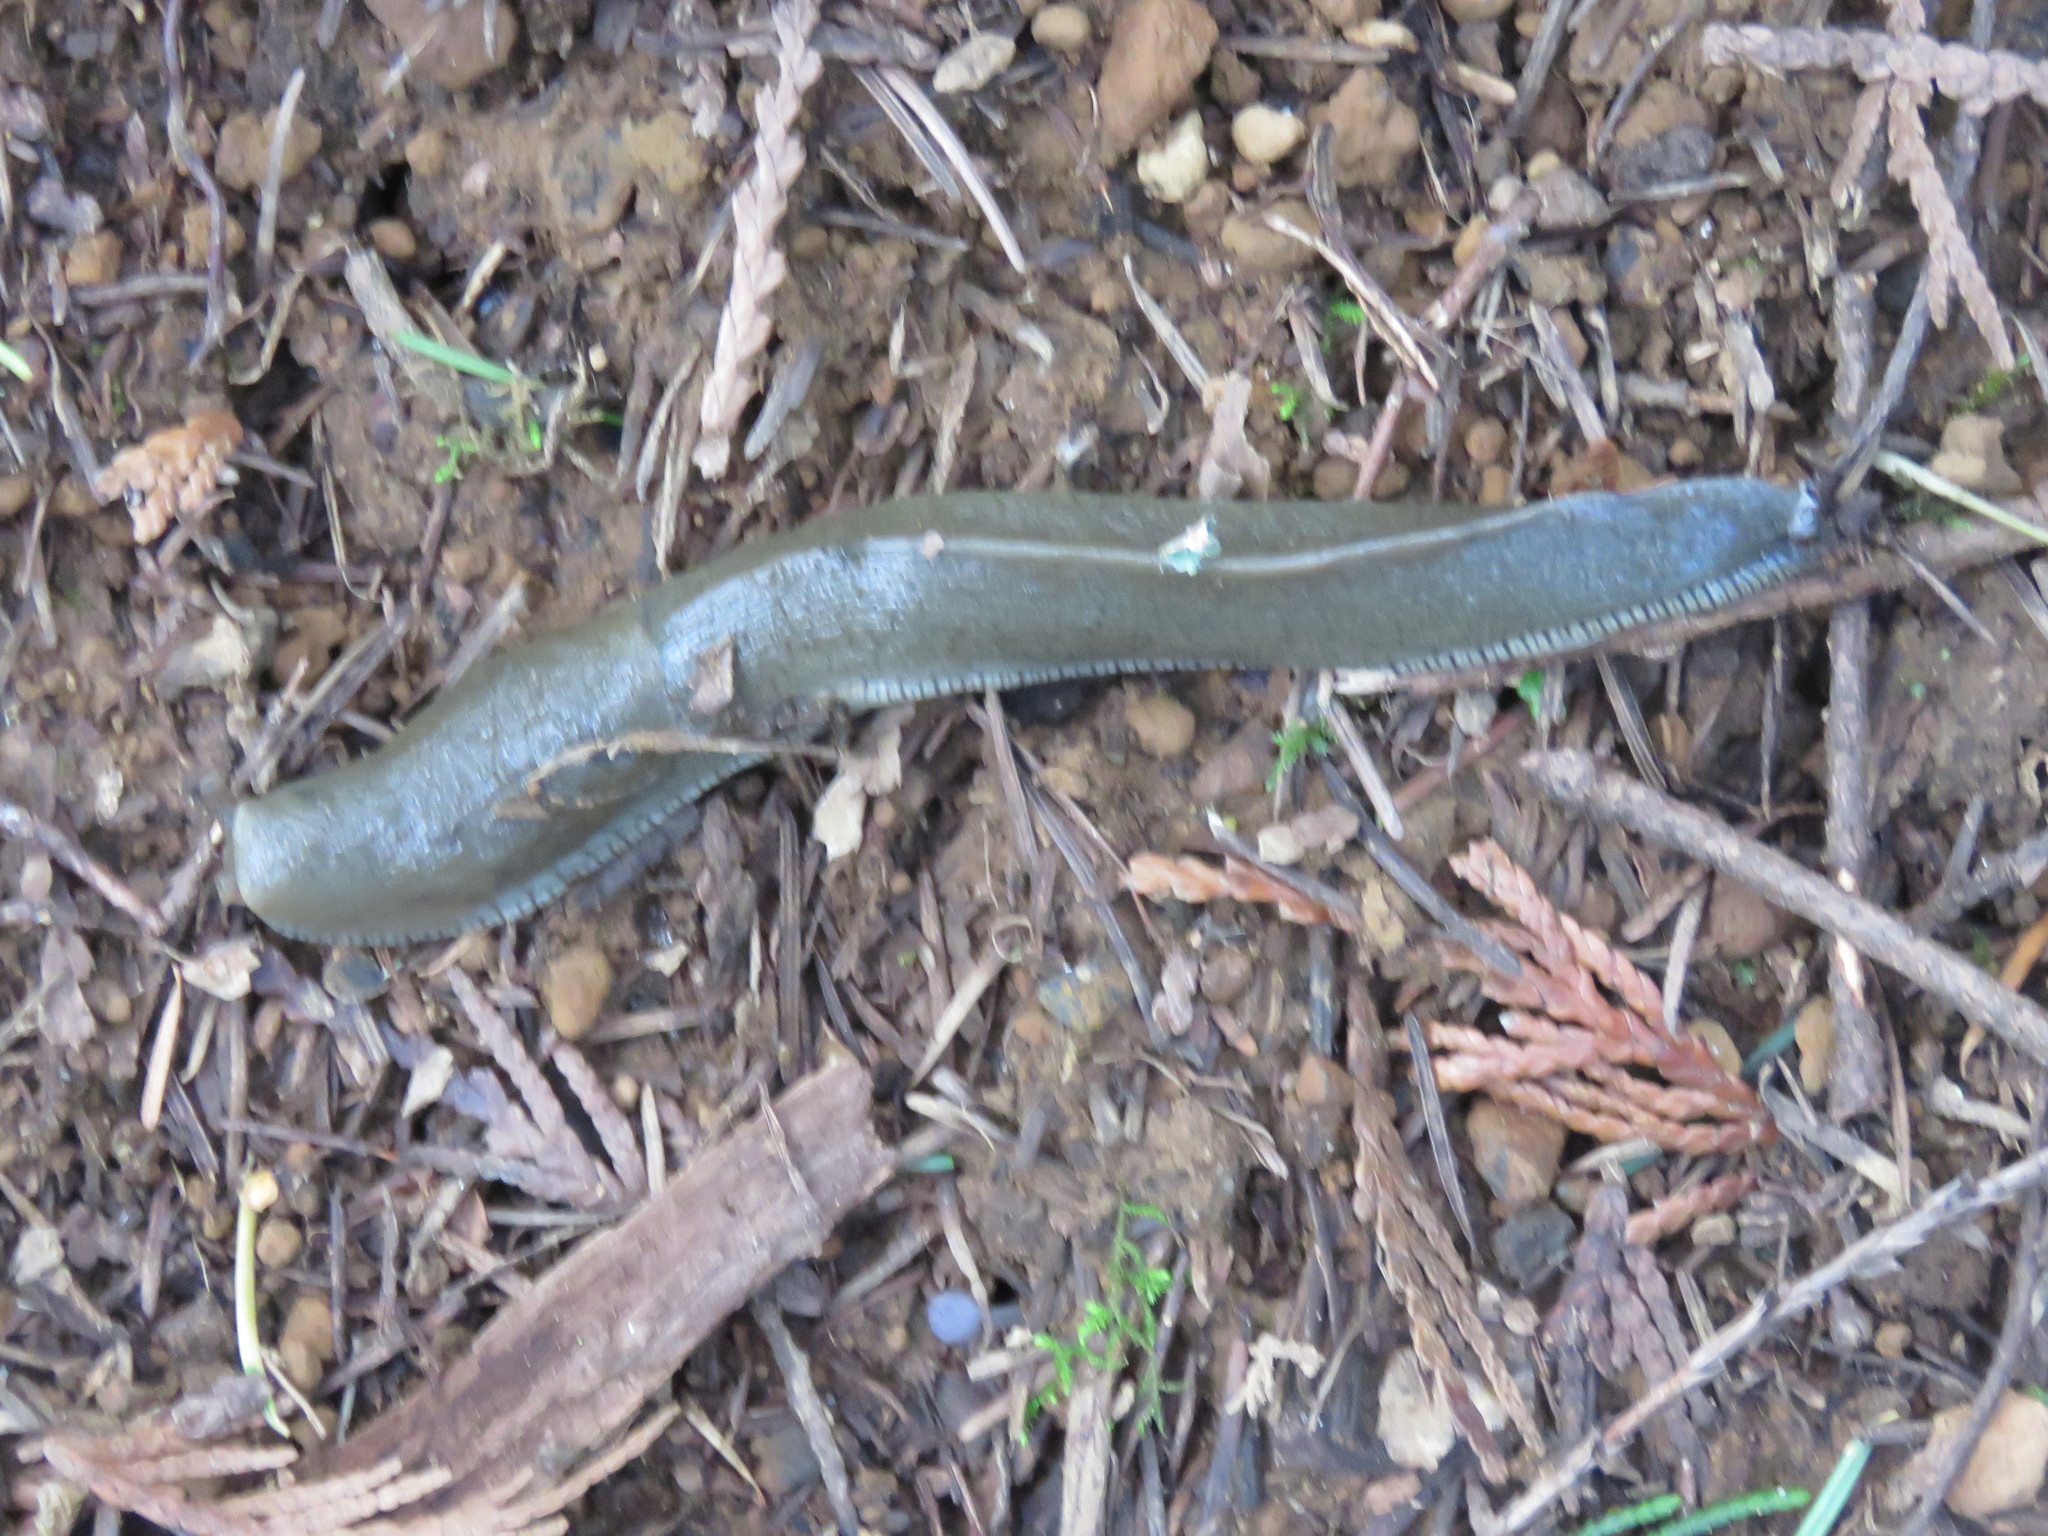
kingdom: Animalia
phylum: Mollusca
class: Gastropoda
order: Stylommatophora
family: Ariolimacidae
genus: Ariolimax
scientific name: Ariolimax columbianus
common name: Pacific banana slug
